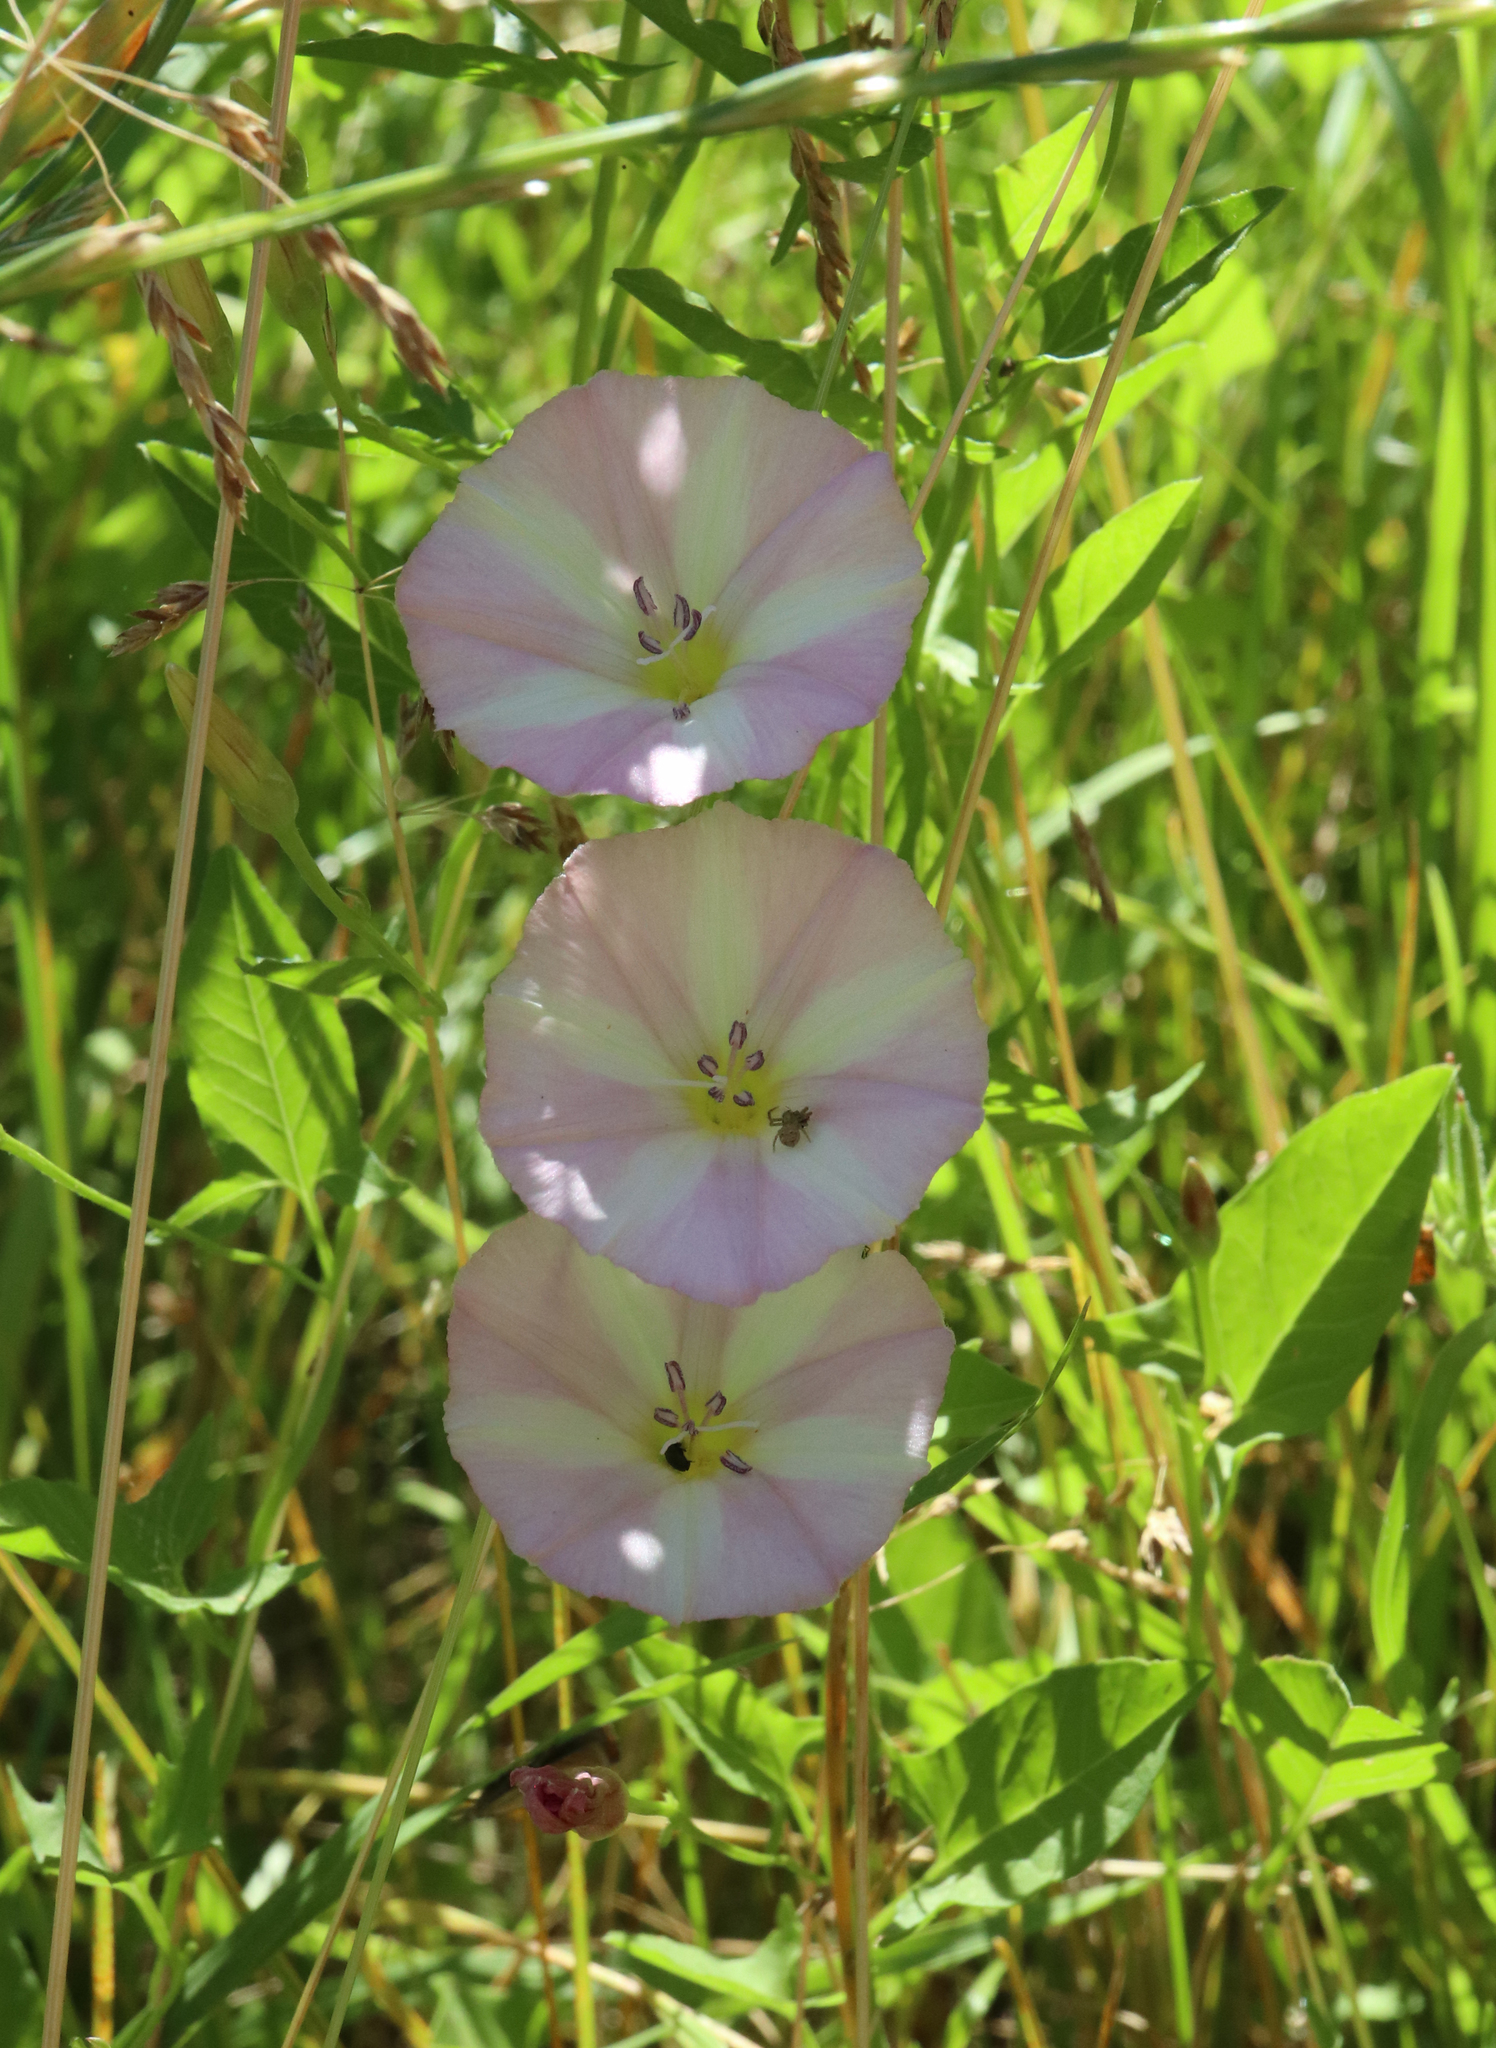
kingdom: Plantae
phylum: Tracheophyta
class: Magnoliopsida
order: Solanales
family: Convolvulaceae
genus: Convolvulus
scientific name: Convolvulus arvensis
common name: Field bindweed
